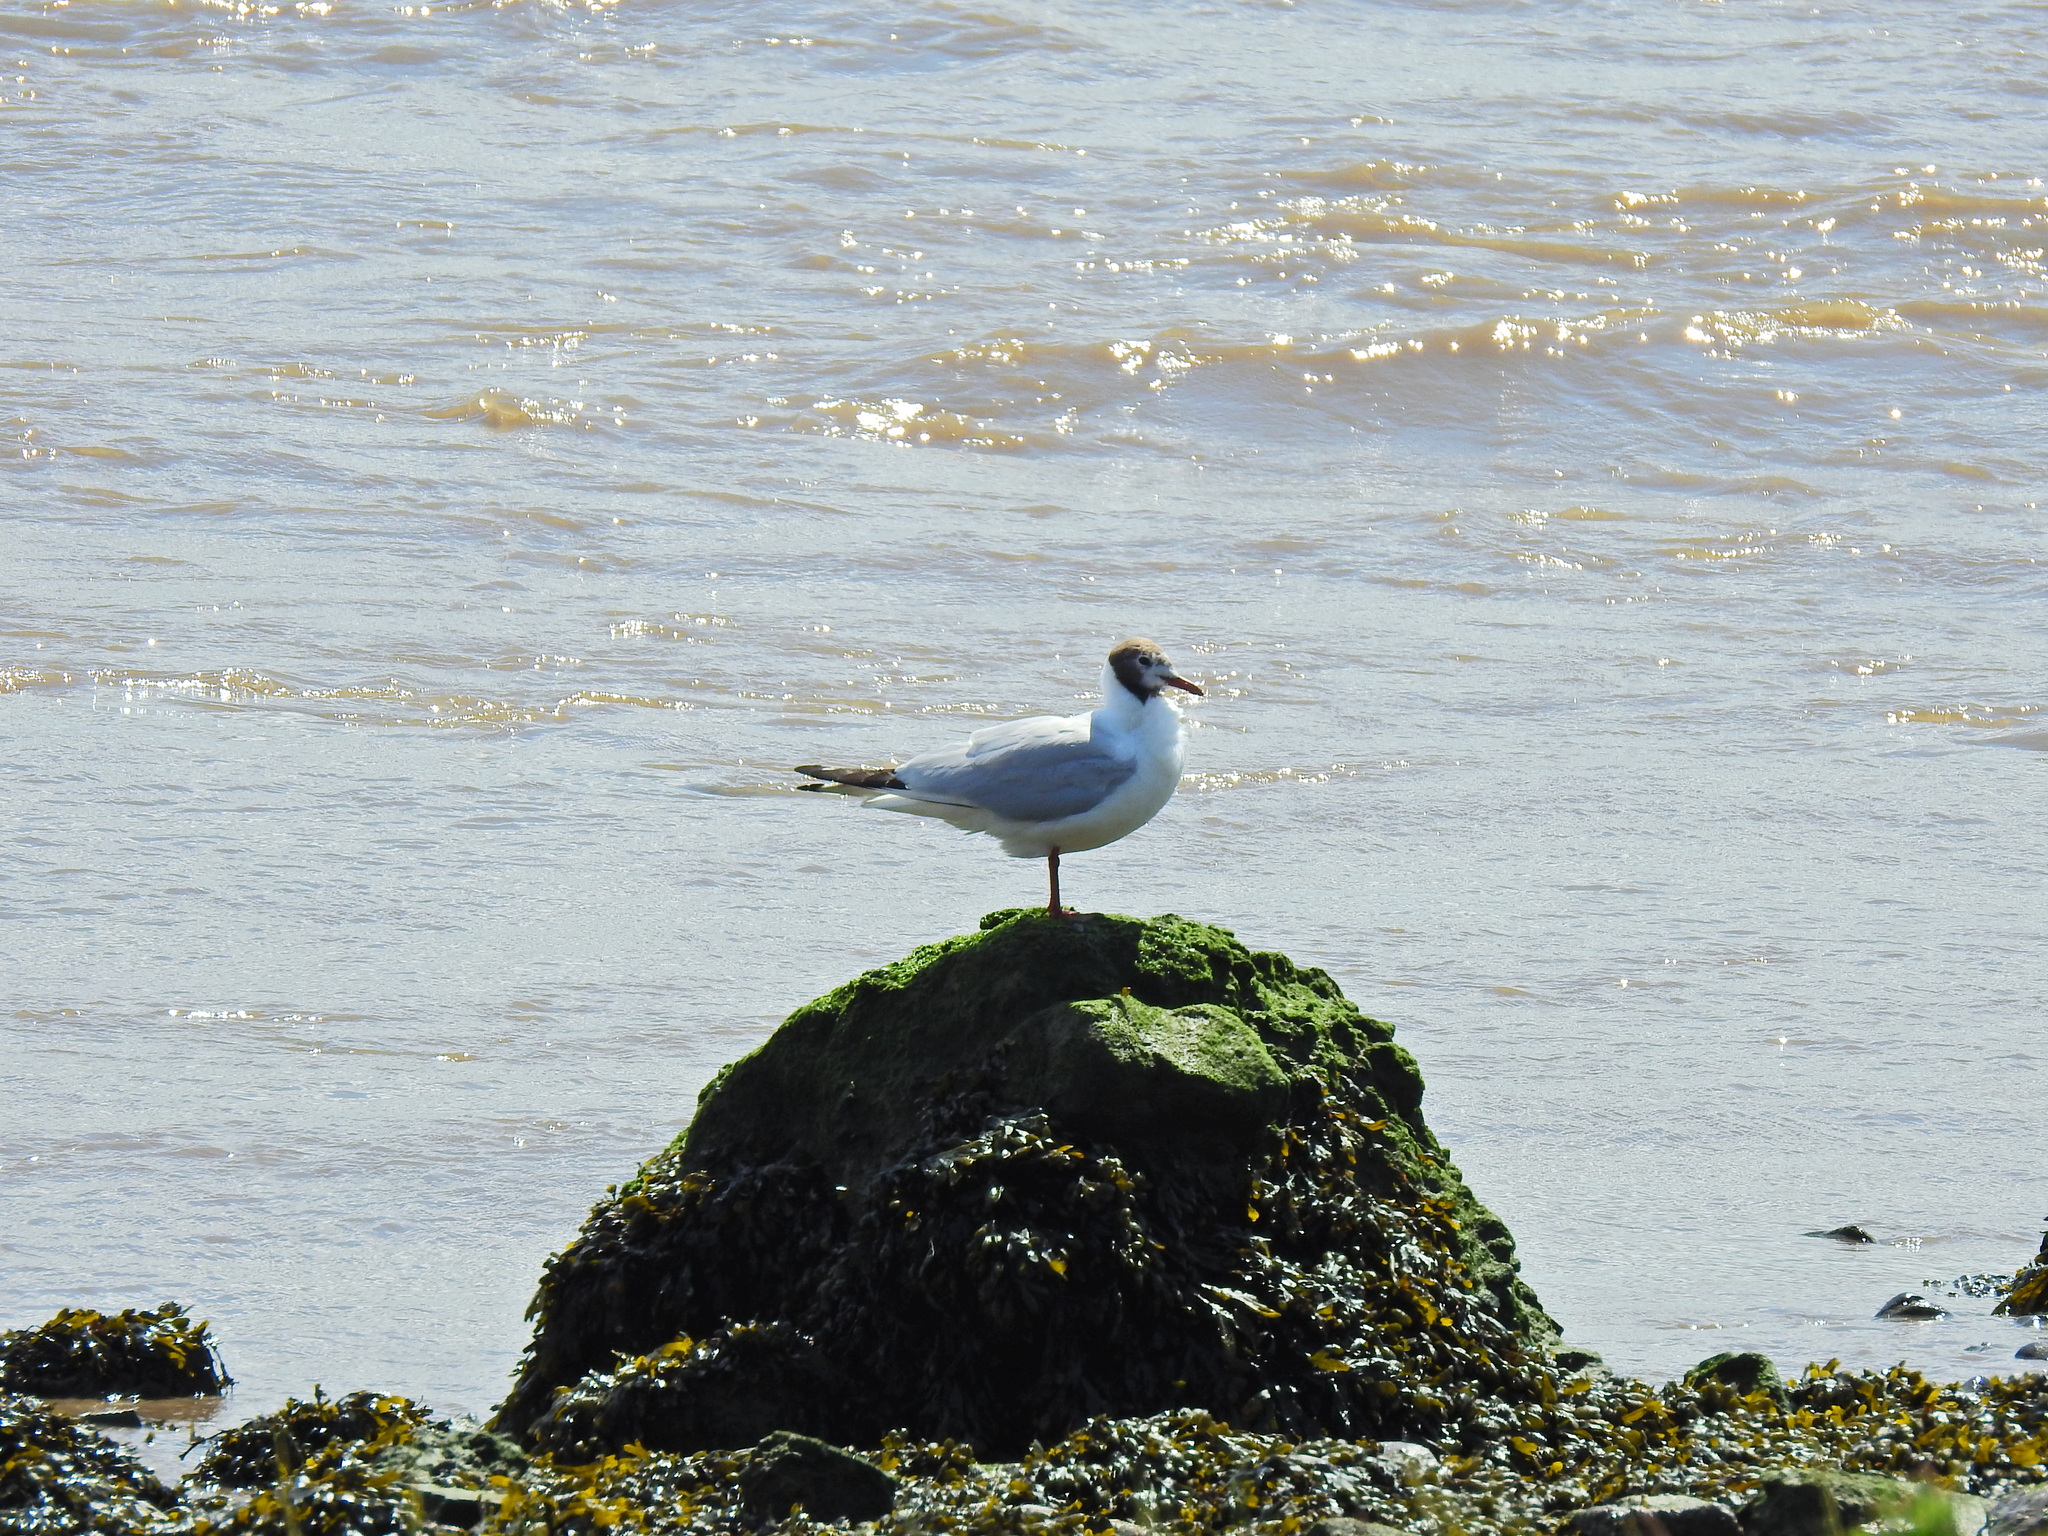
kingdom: Animalia
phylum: Chordata
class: Aves
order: Charadriiformes
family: Laridae
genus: Chroicocephalus
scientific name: Chroicocephalus ridibundus
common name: Black-headed gull
